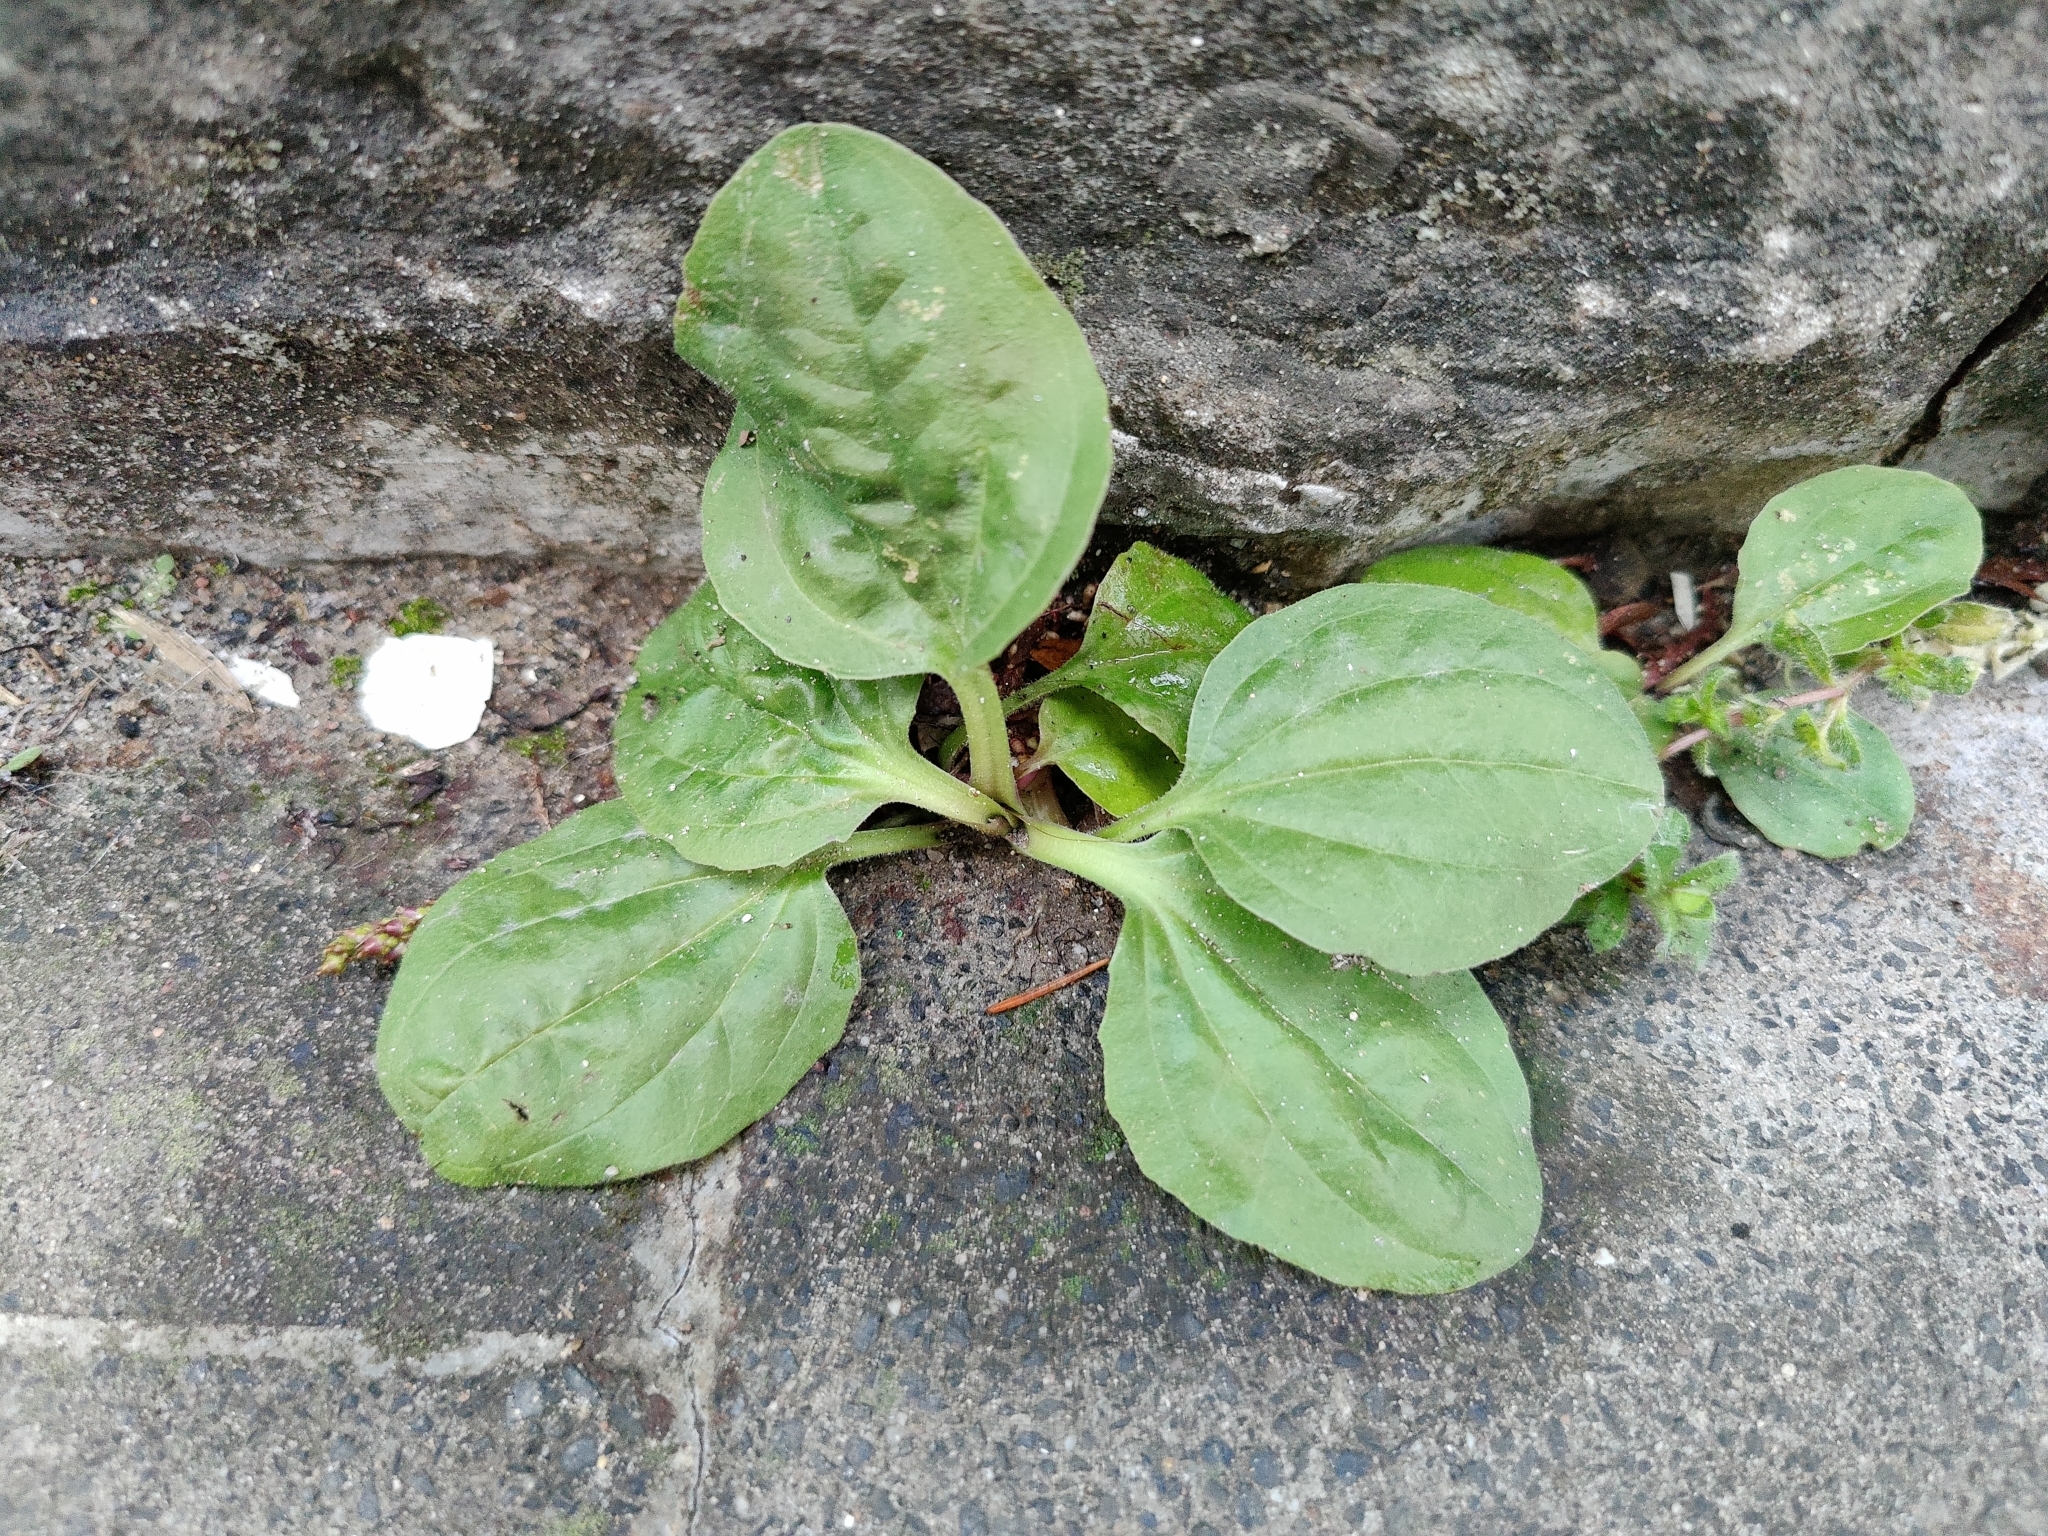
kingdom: Plantae
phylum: Tracheophyta
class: Magnoliopsida
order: Lamiales
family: Plantaginaceae
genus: Plantago
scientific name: Plantago major
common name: Common plantain
